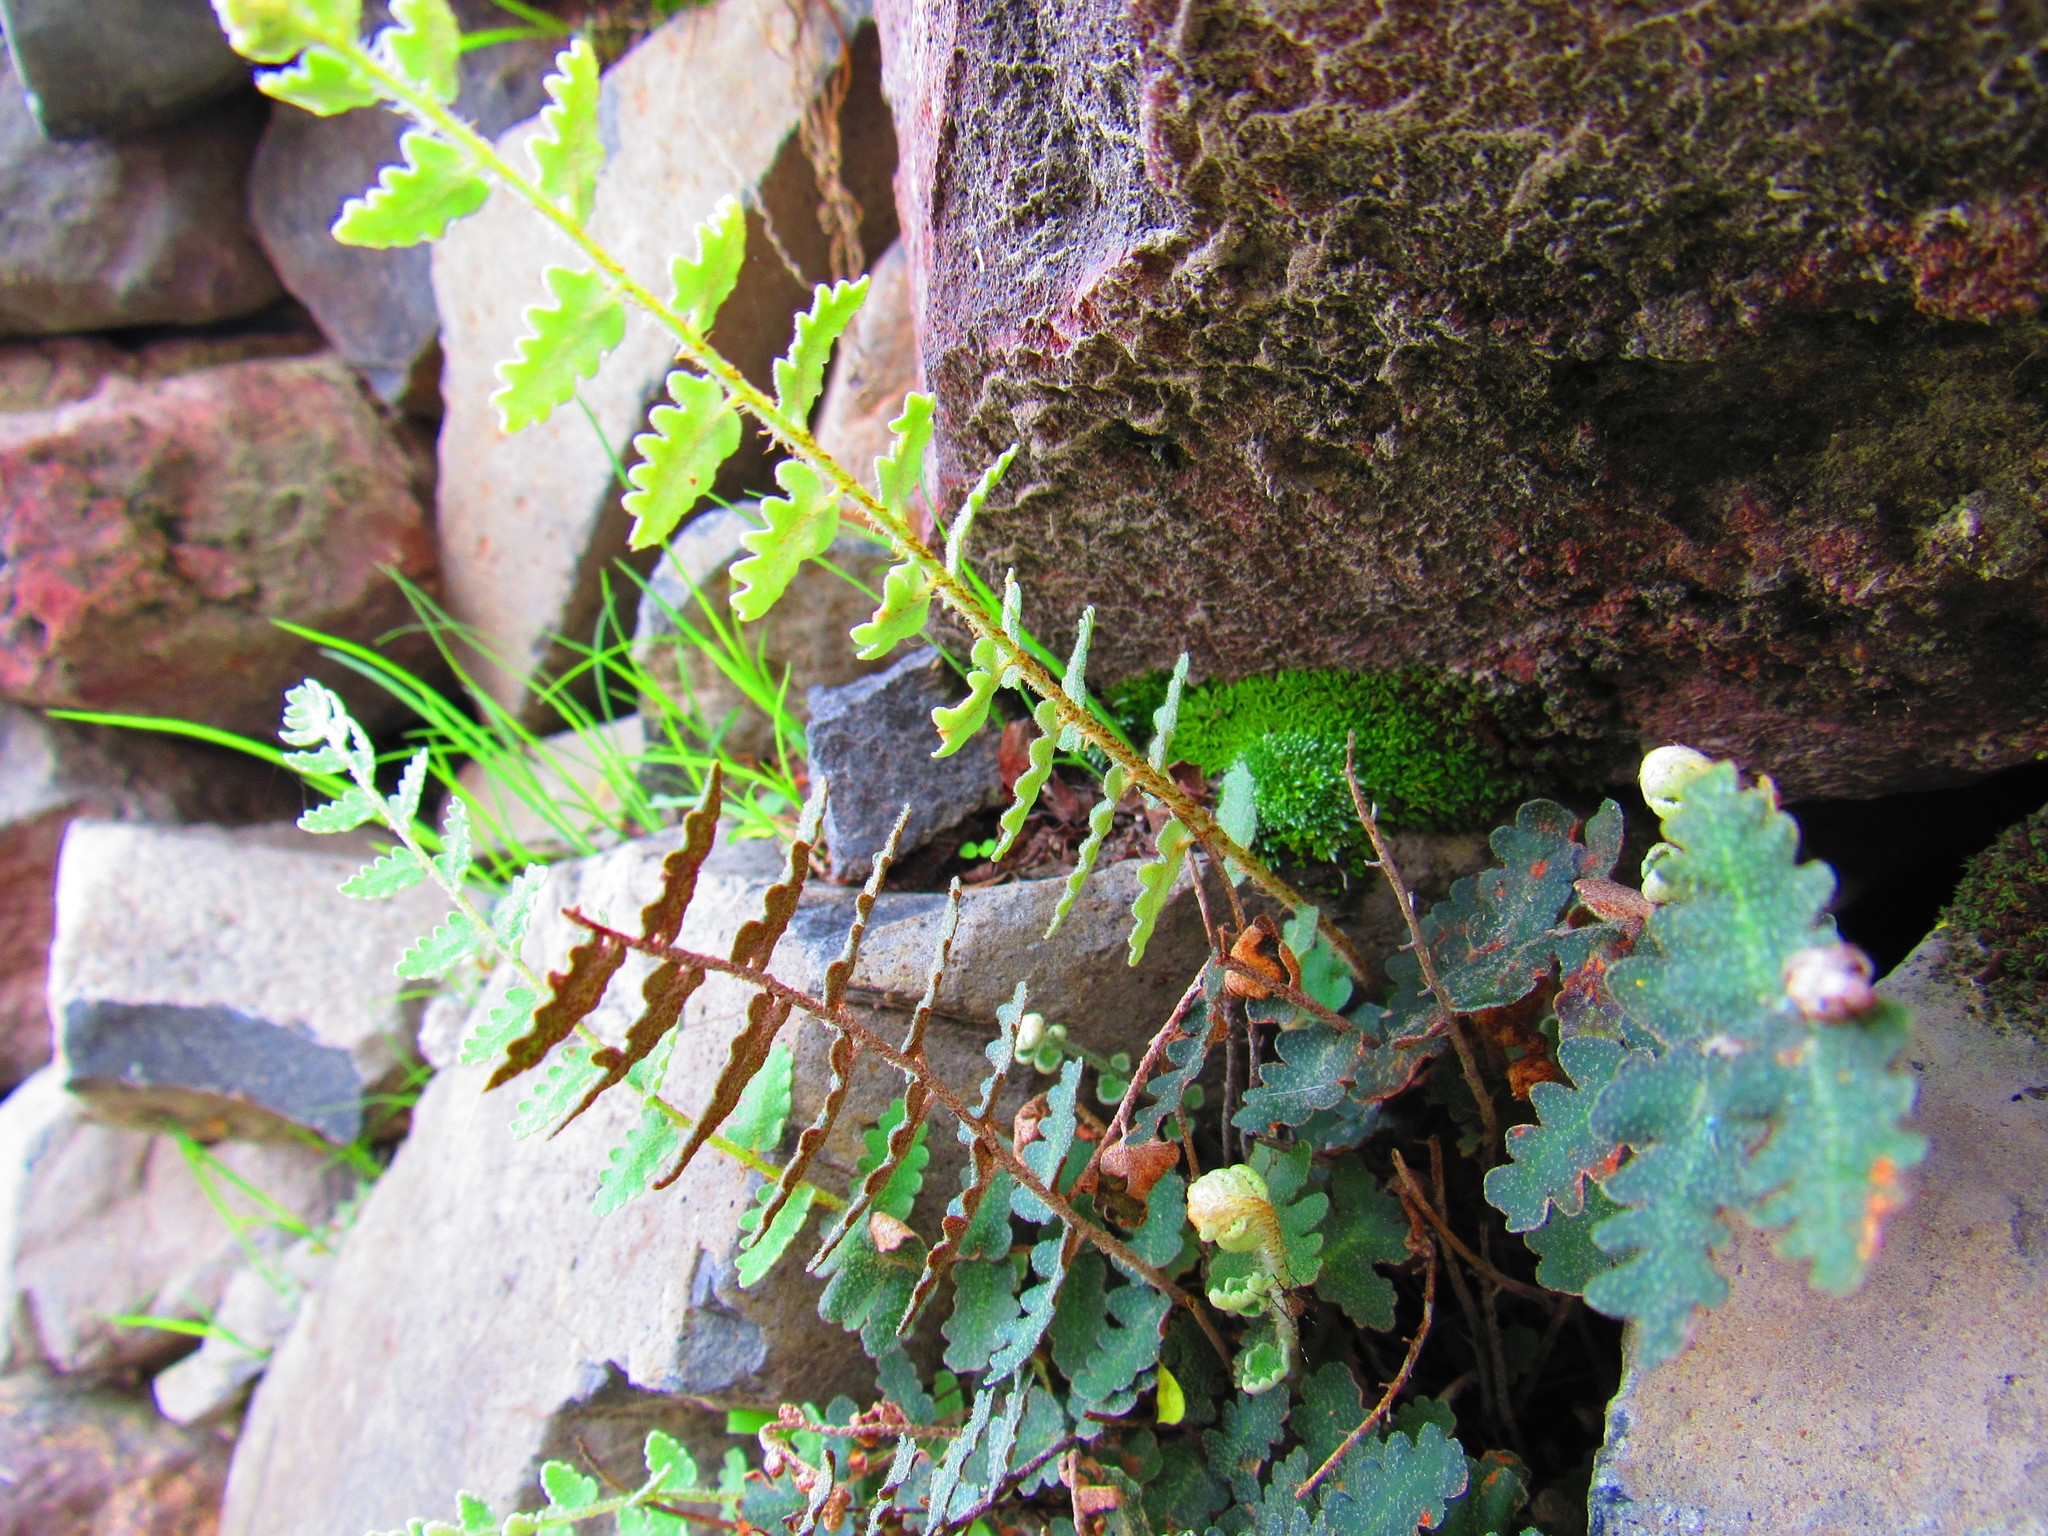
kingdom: Plantae
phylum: Tracheophyta
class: Polypodiopsida
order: Polypodiales
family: Pteridaceae
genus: Astrolepis
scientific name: Astrolepis sinuata
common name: Wavy scaly cloakfern
